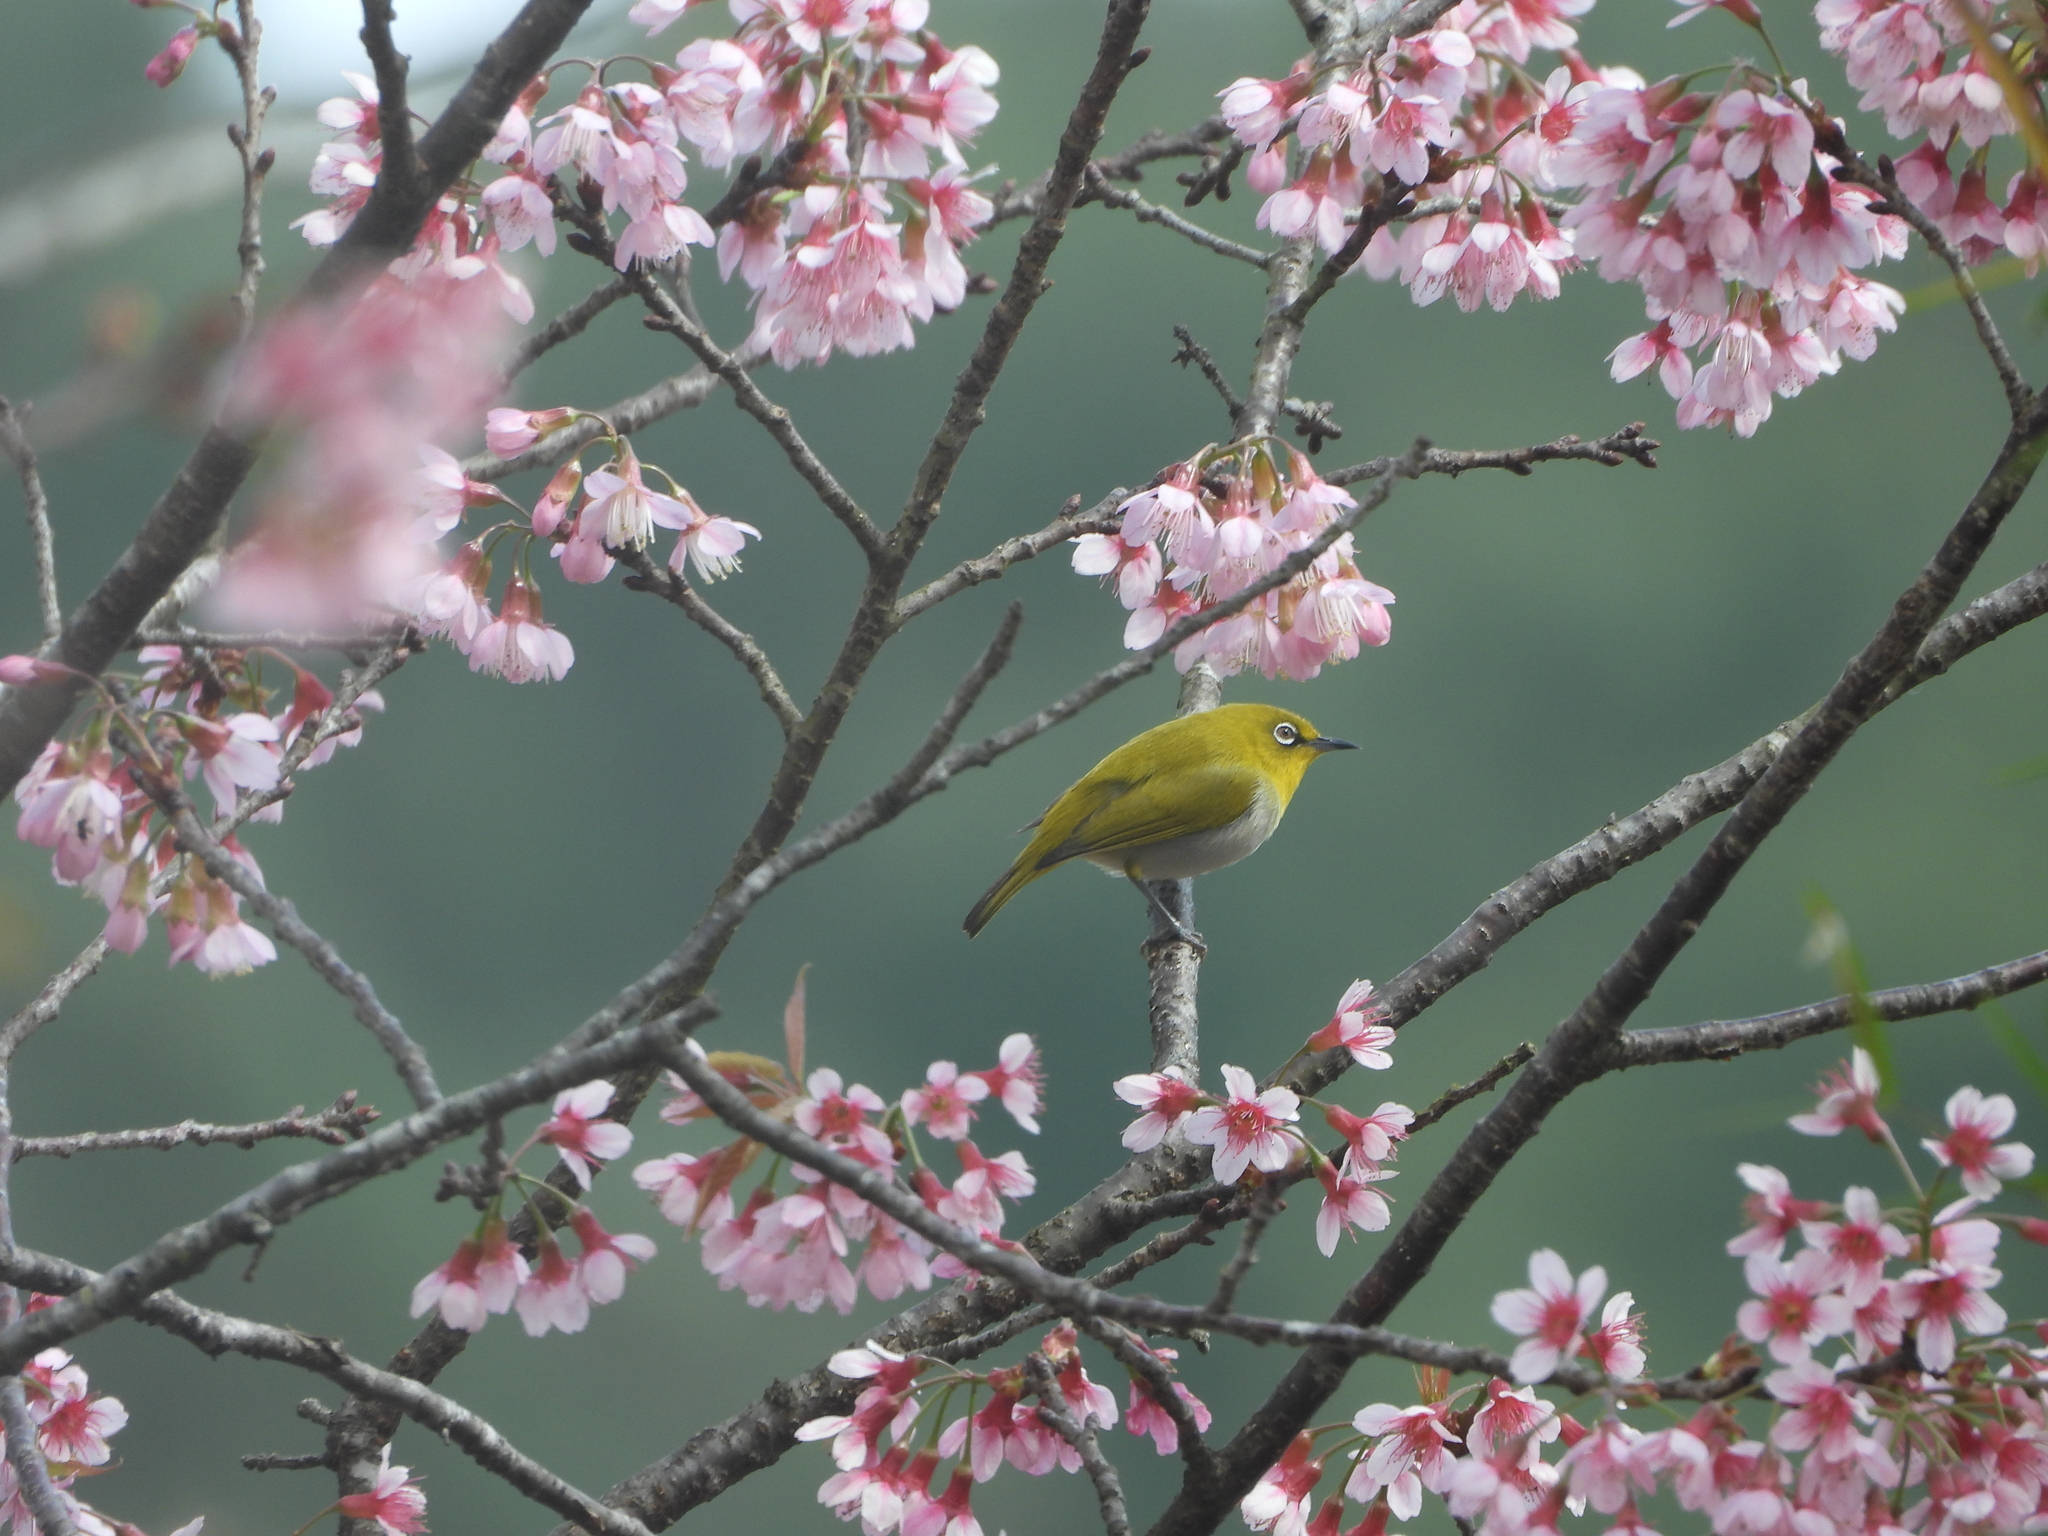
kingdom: Animalia
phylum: Chordata
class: Aves
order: Passeriformes
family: Zosteropidae
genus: Zosterops
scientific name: Zosterops palpebrosus
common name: Oriental white-eye
